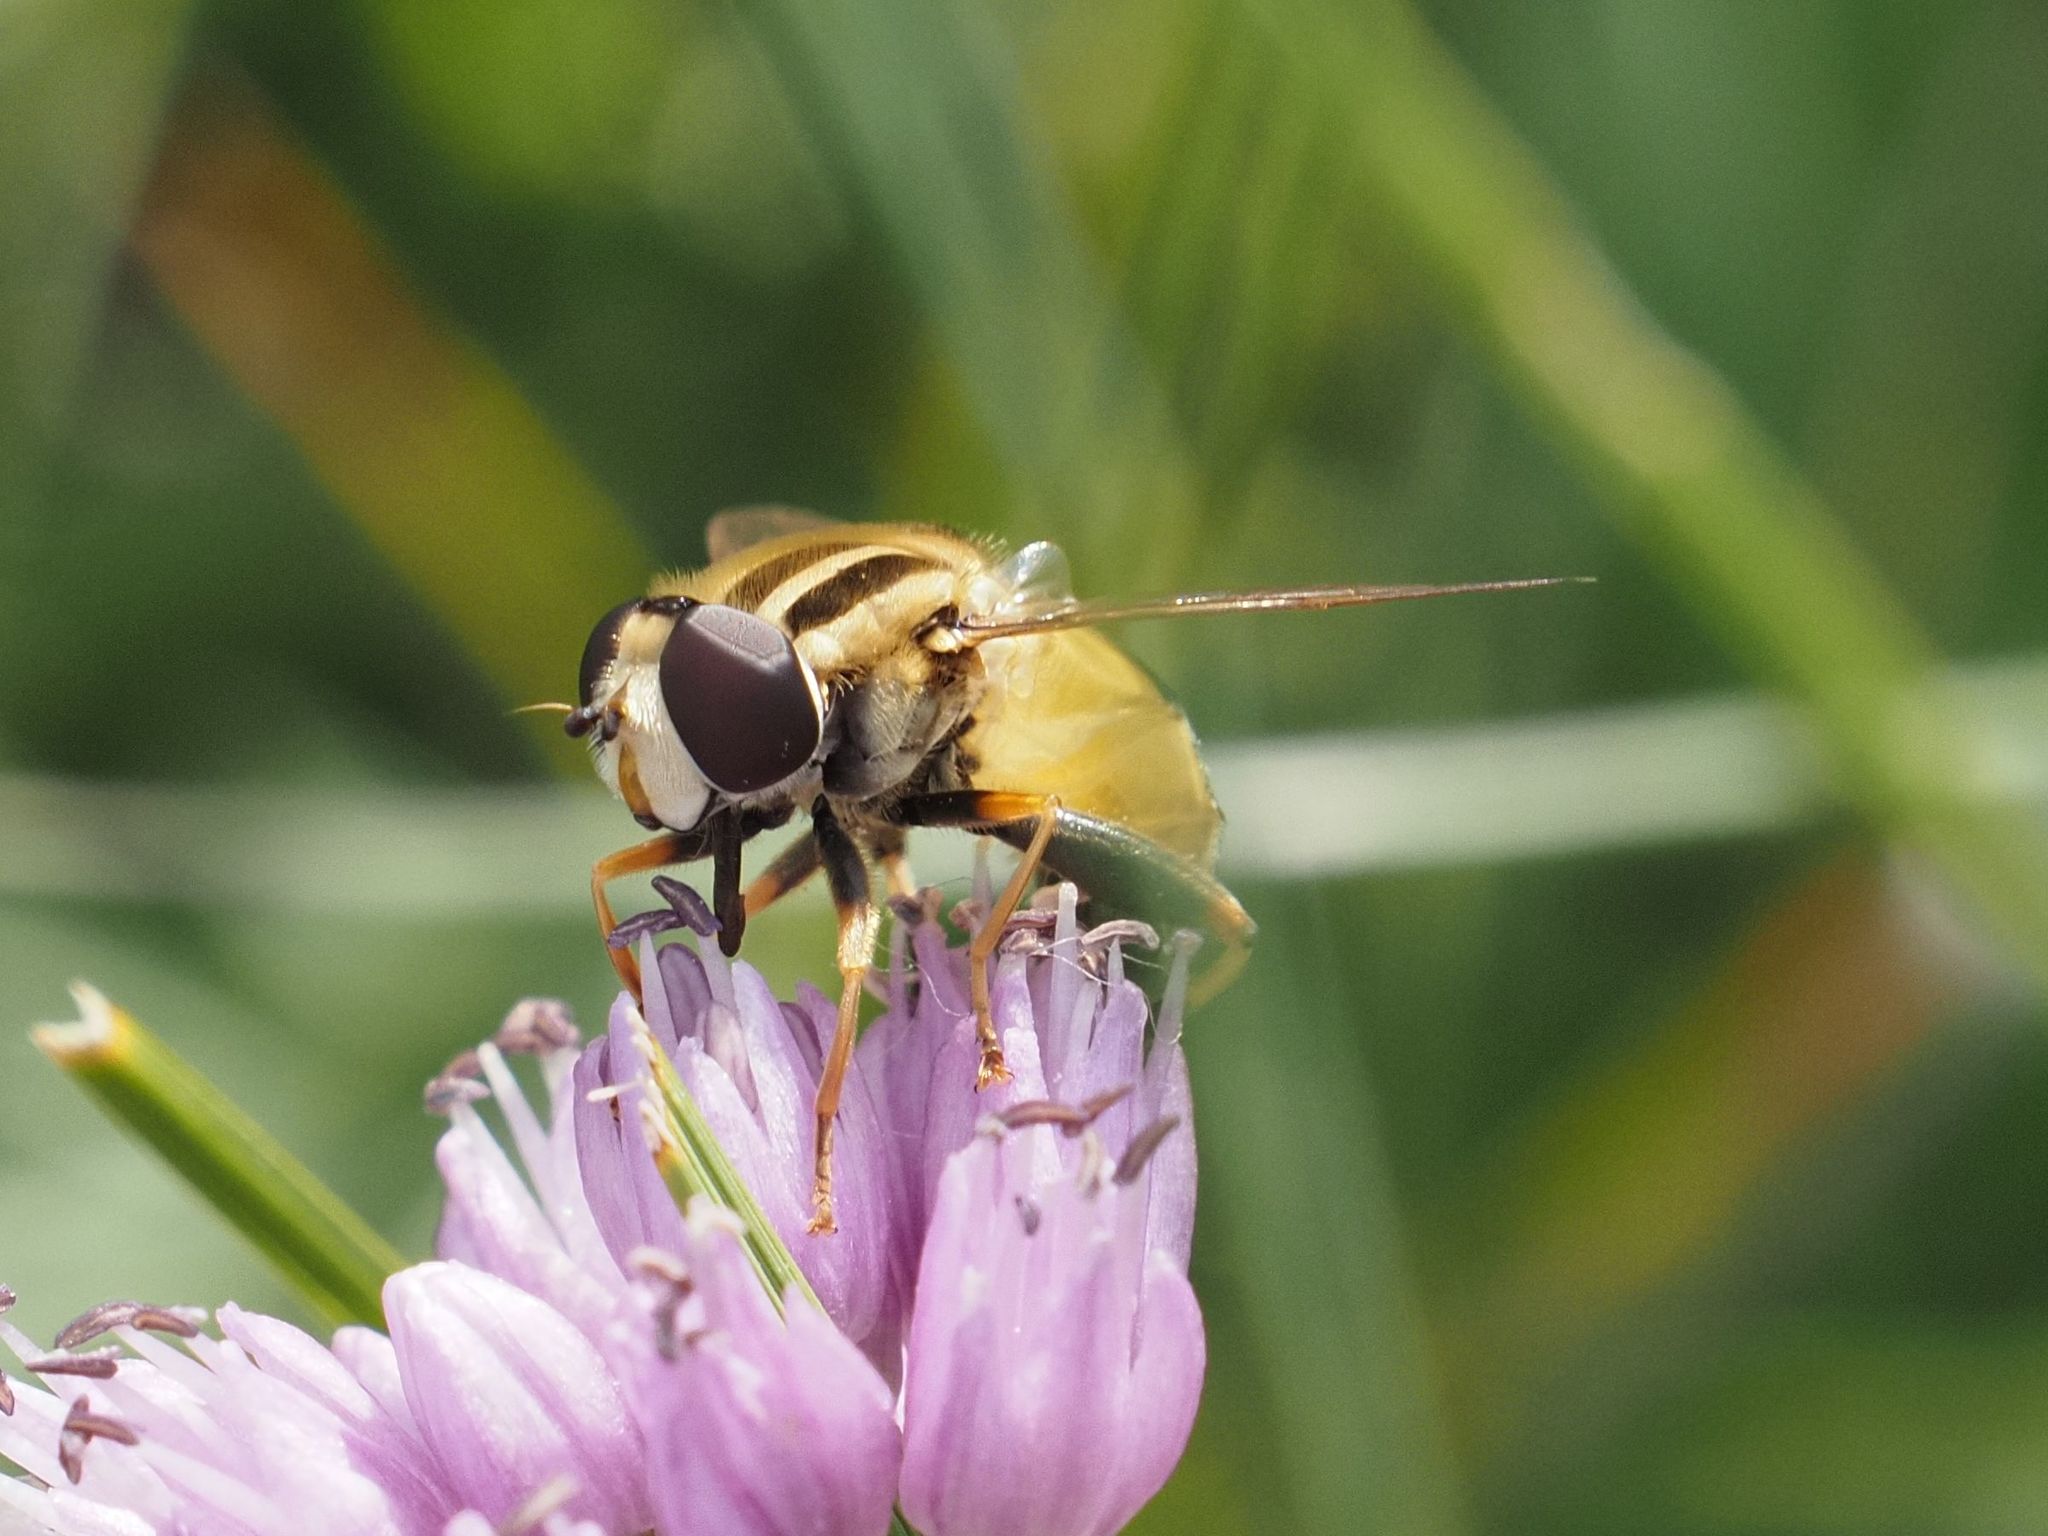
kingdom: Animalia
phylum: Arthropoda
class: Insecta
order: Diptera
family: Syrphidae
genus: Helophilus
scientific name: Helophilus trivittatus
